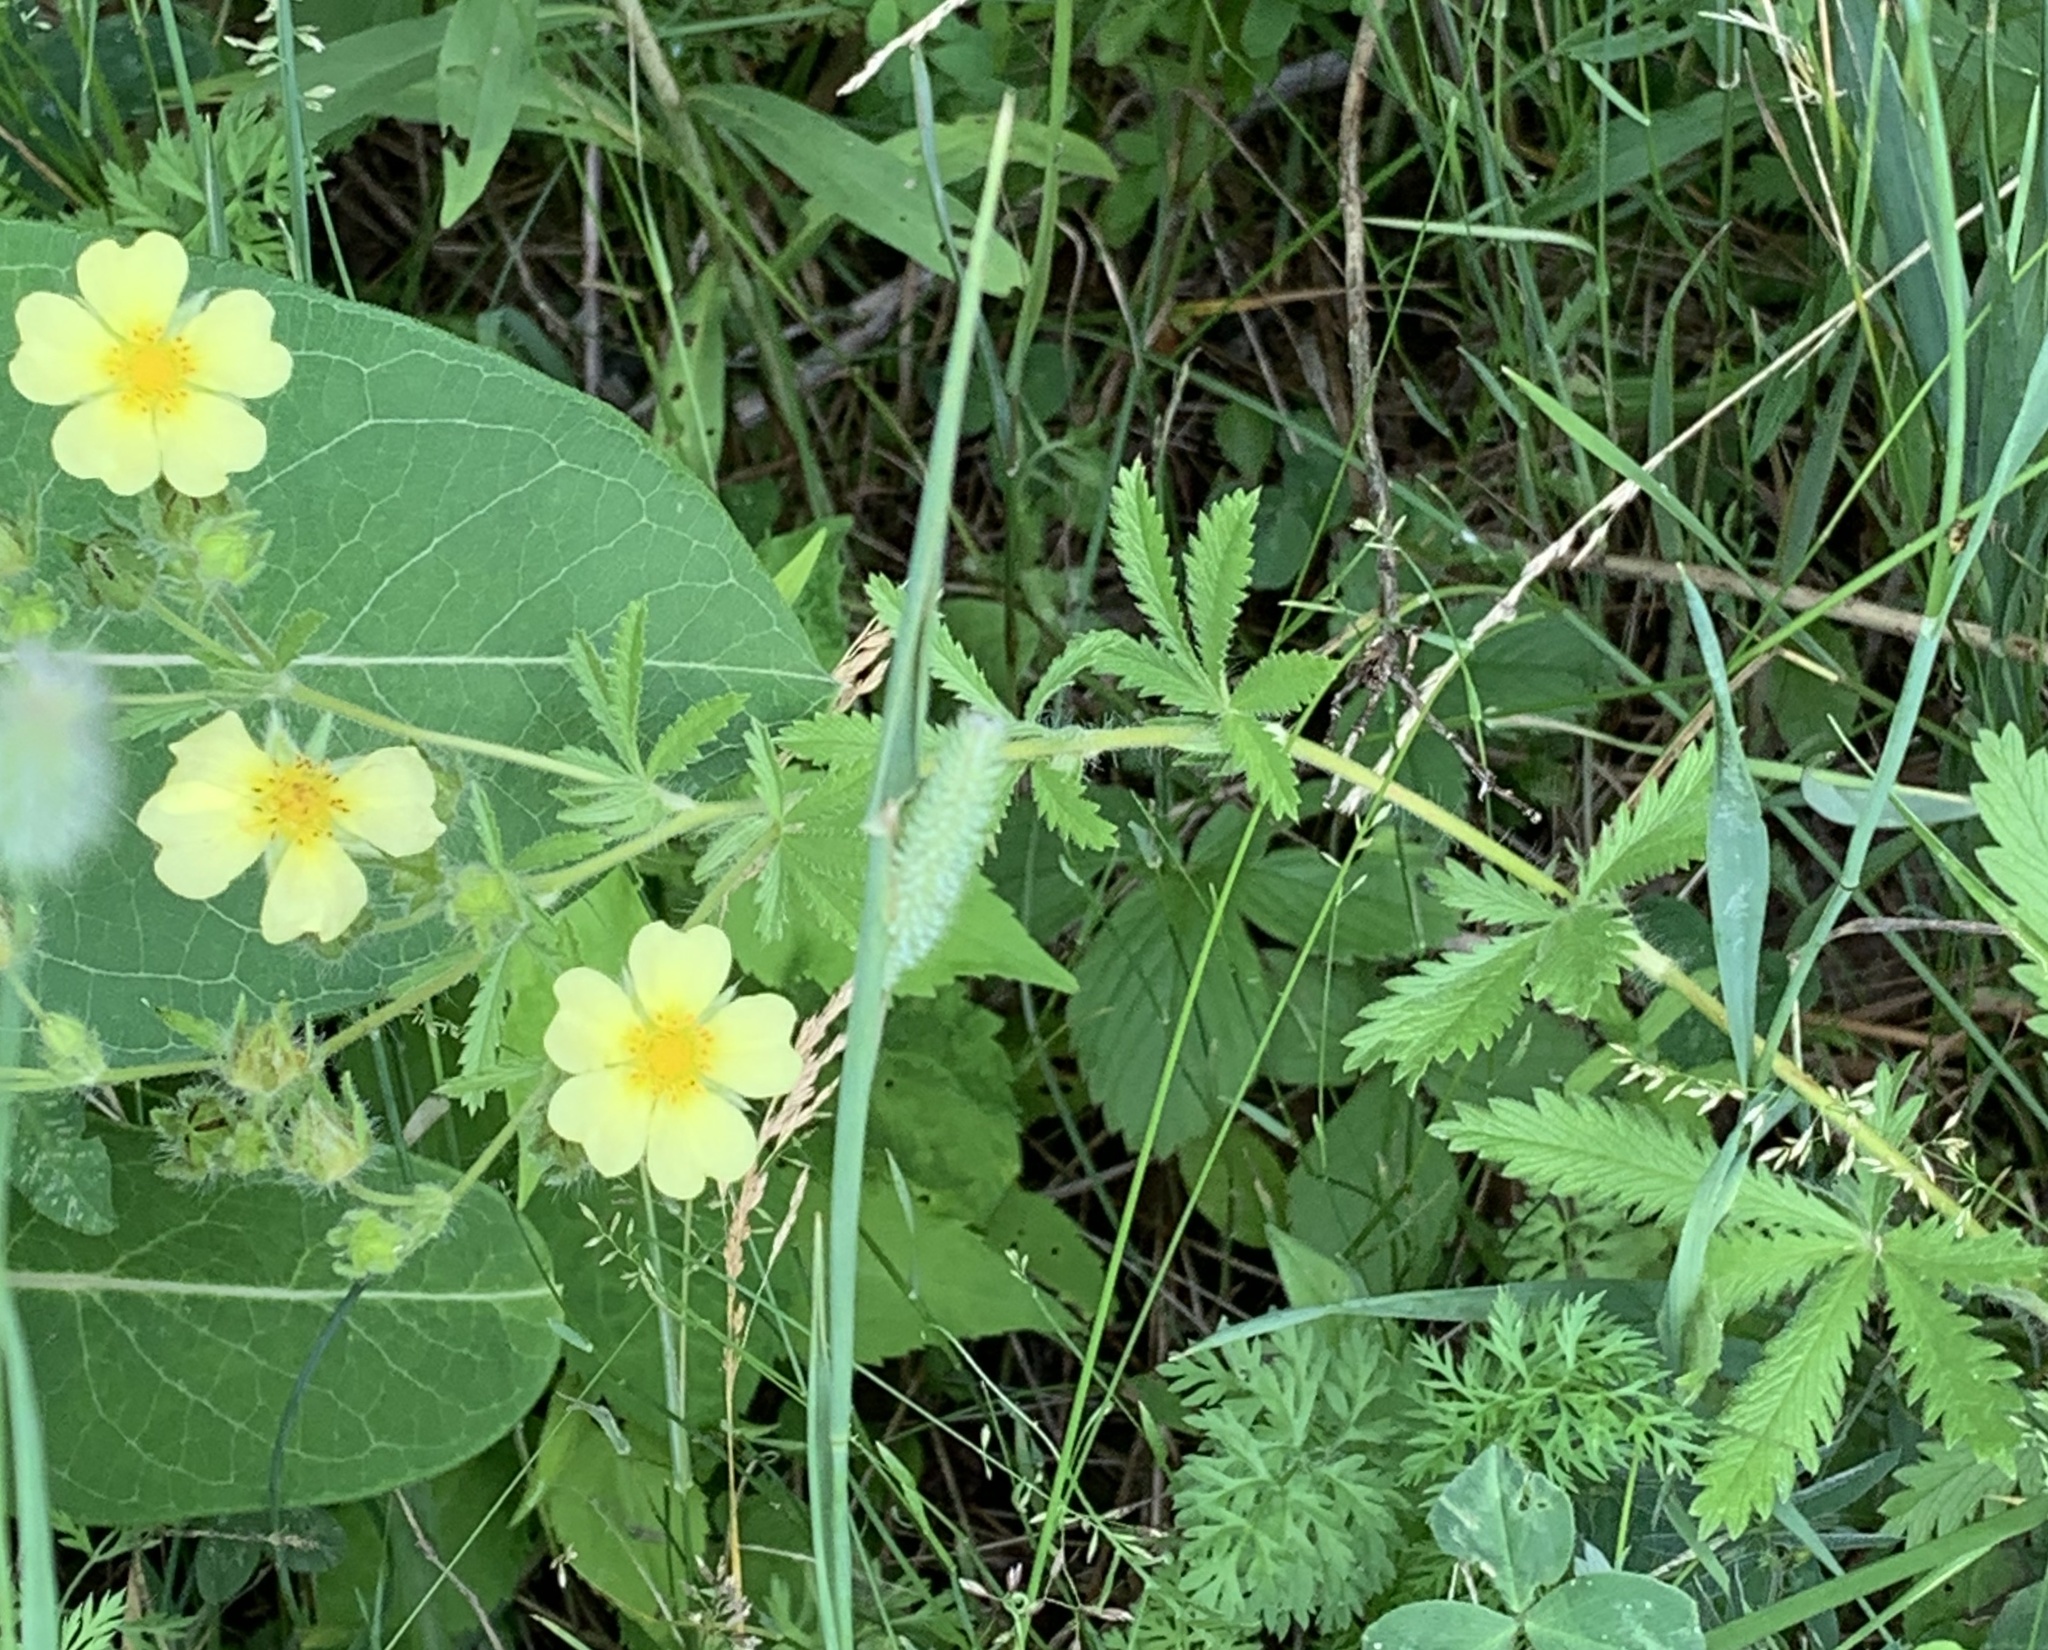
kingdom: Plantae
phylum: Tracheophyta
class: Magnoliopsida
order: Rosales
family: Rosaceae
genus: Potentilla
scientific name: Potentilla recta
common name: Sulphur cinquefoil
